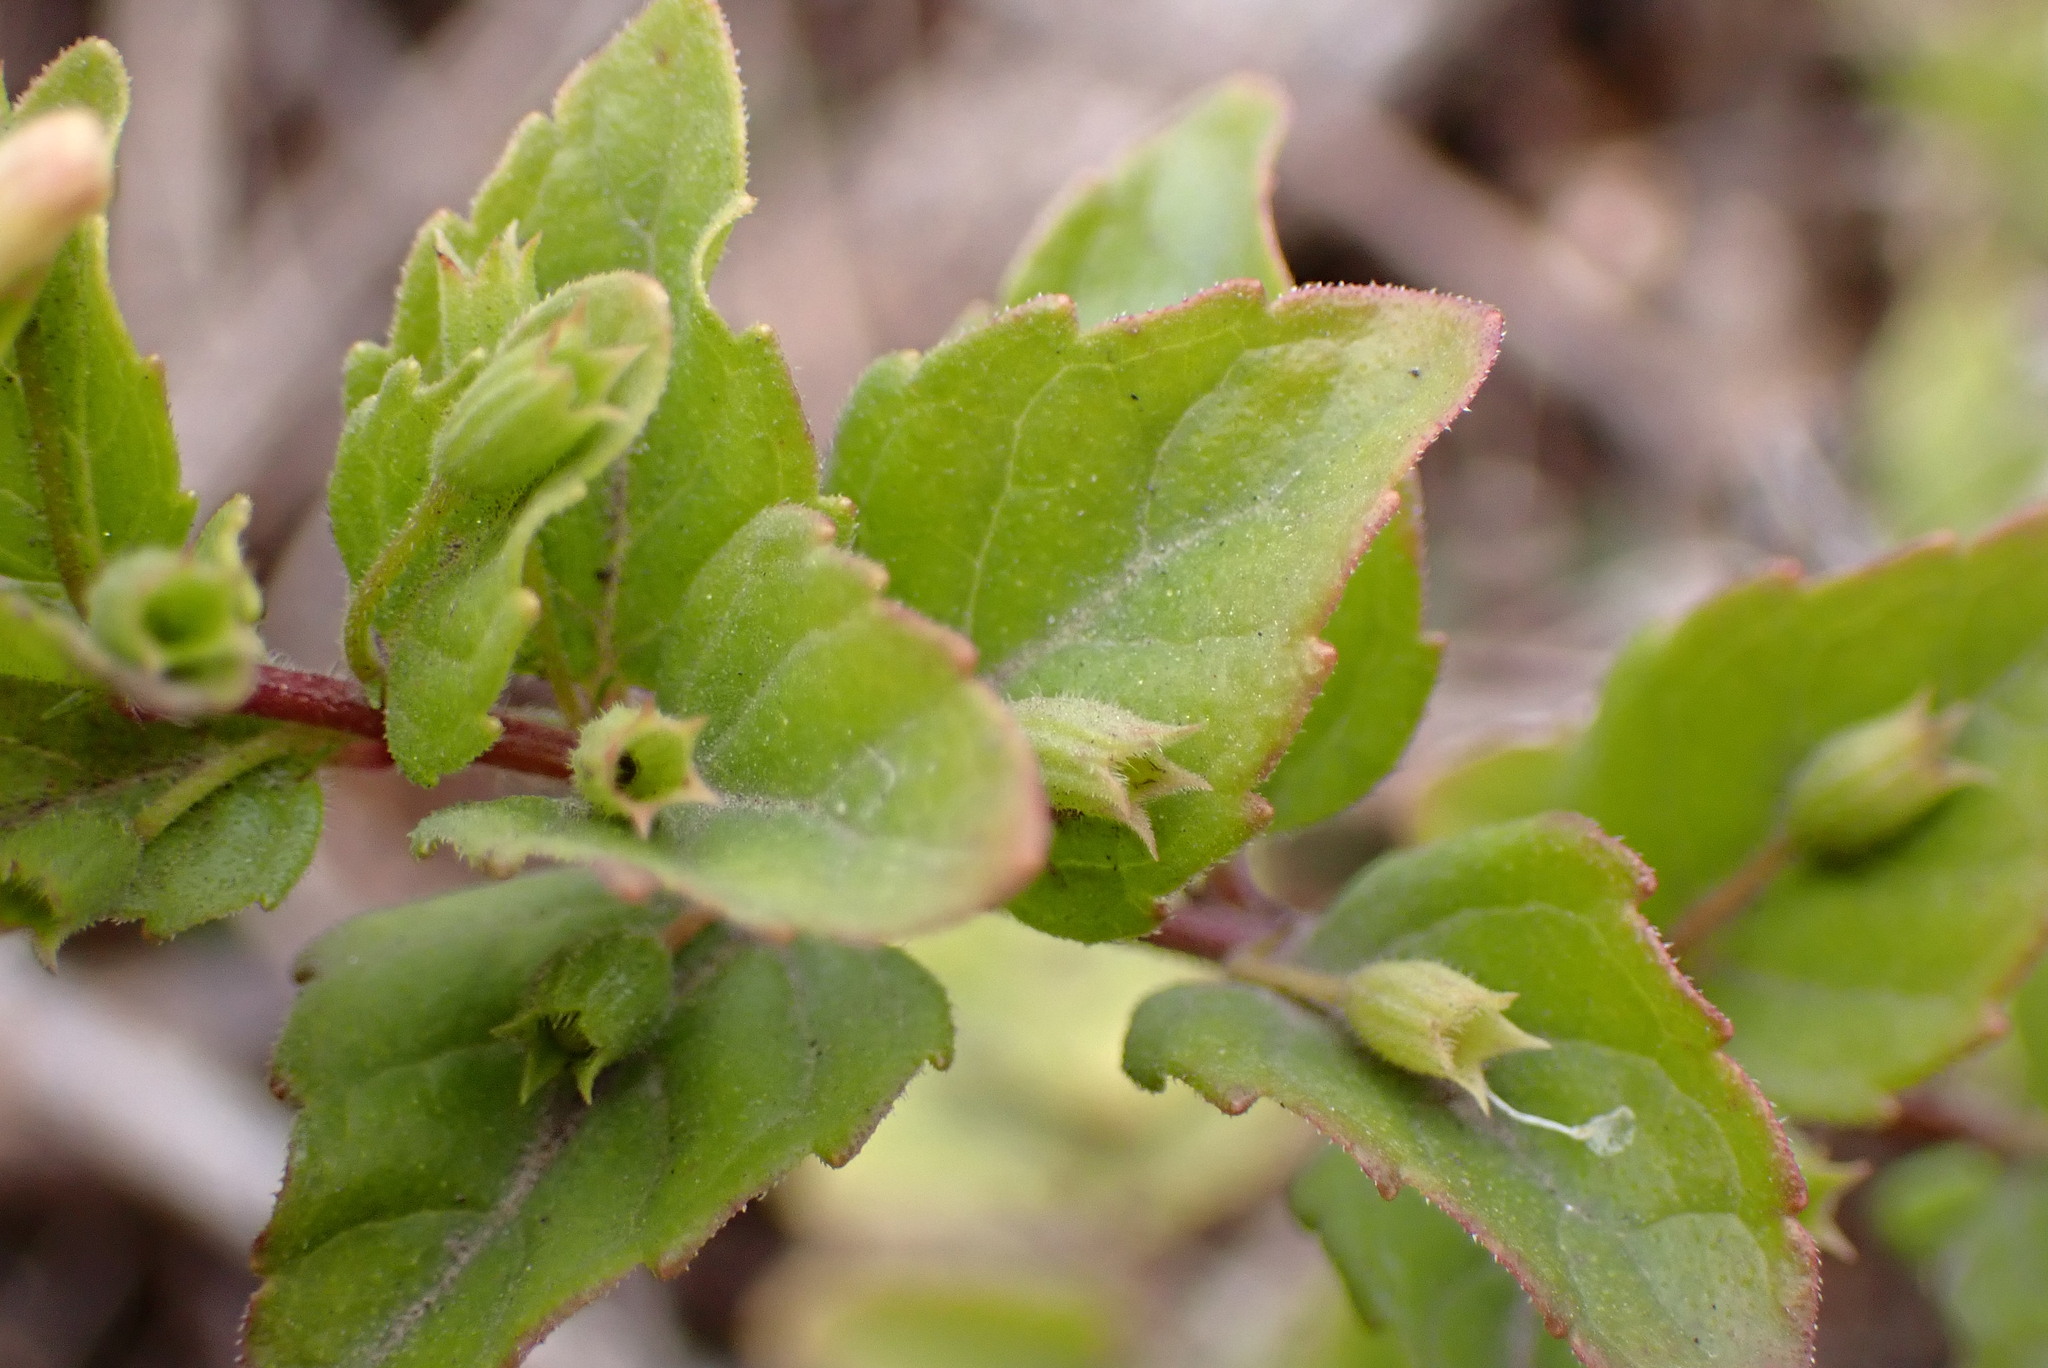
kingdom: Plantae
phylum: Tracheophyta
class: Magnoliopsida
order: Lamiales
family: Lamiaceae
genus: Micromeria
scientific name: Micromeria douglasii
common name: Yerba buena
